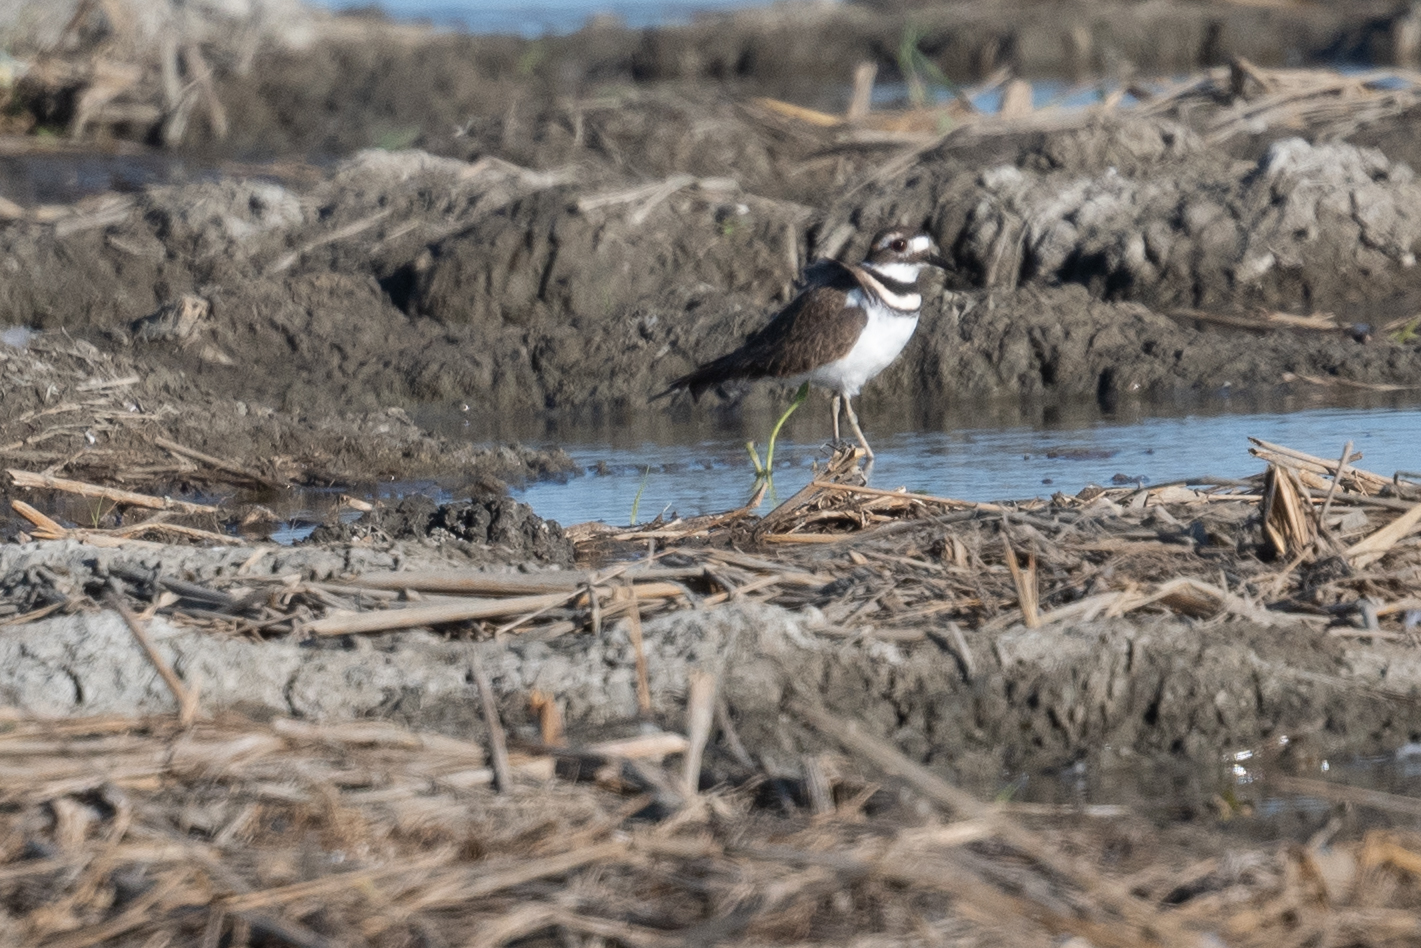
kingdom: Animalia
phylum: Chordata
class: Aves
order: Charadriiformes
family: Charadriidae
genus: Charadrius
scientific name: Charadrius vociferus
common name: Killdeer
